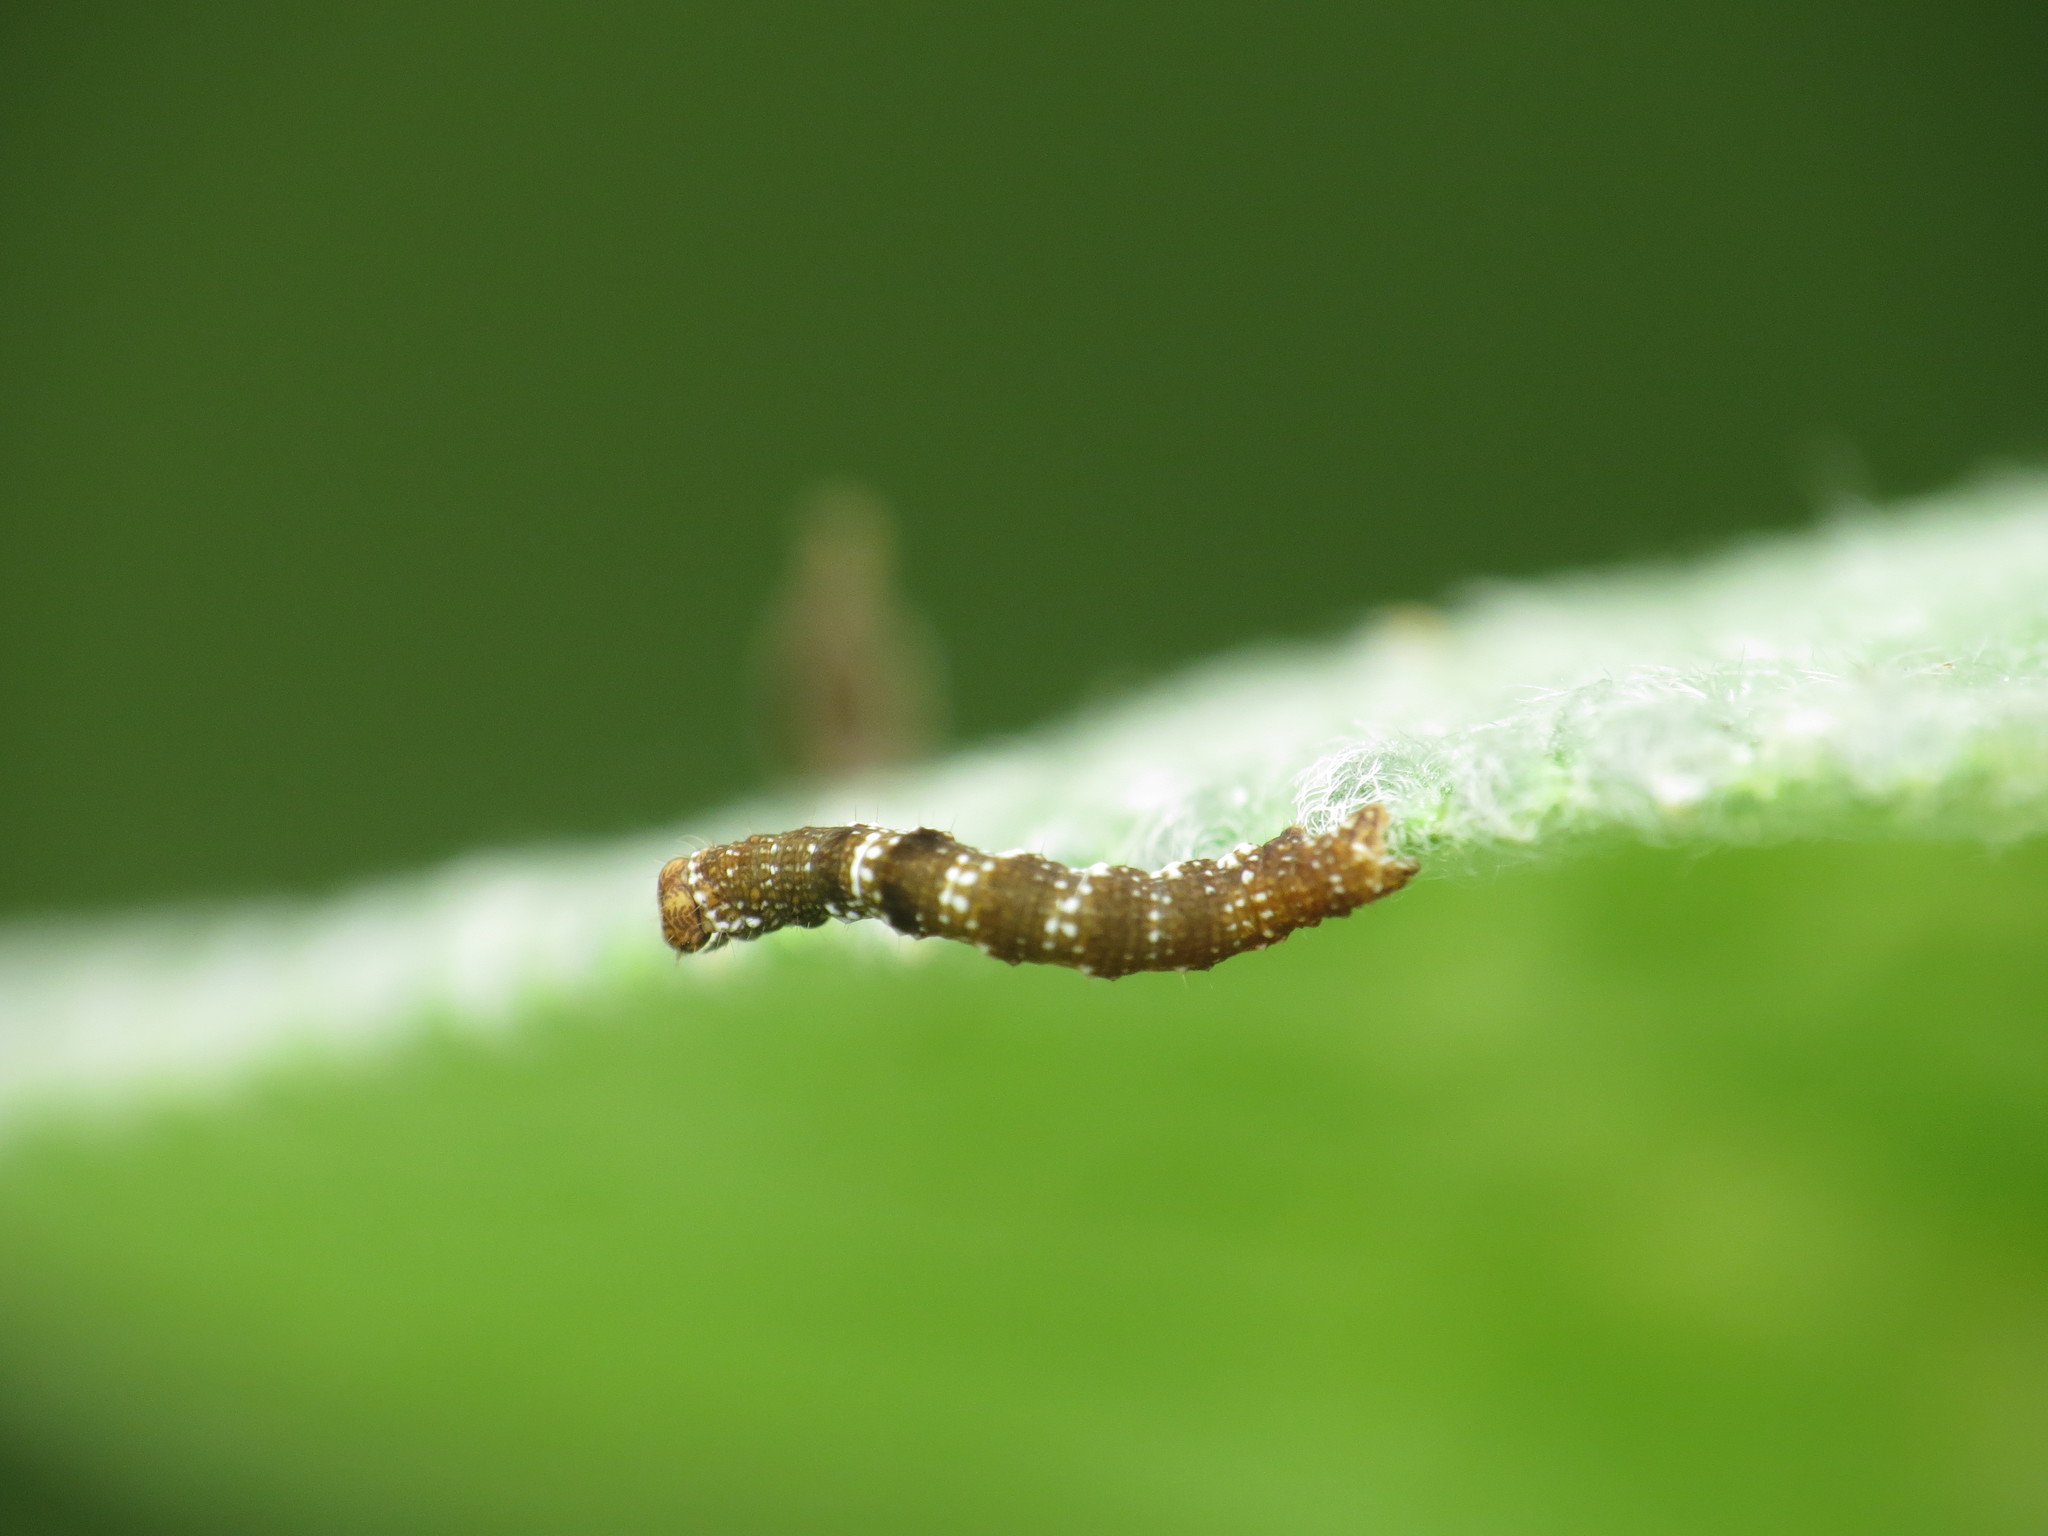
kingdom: Animalia
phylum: Arthropoda
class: Insecta
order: Lepidoptera
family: Geometridae
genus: Ectropis
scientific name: Ectropis crepuscularia
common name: Engrailed
